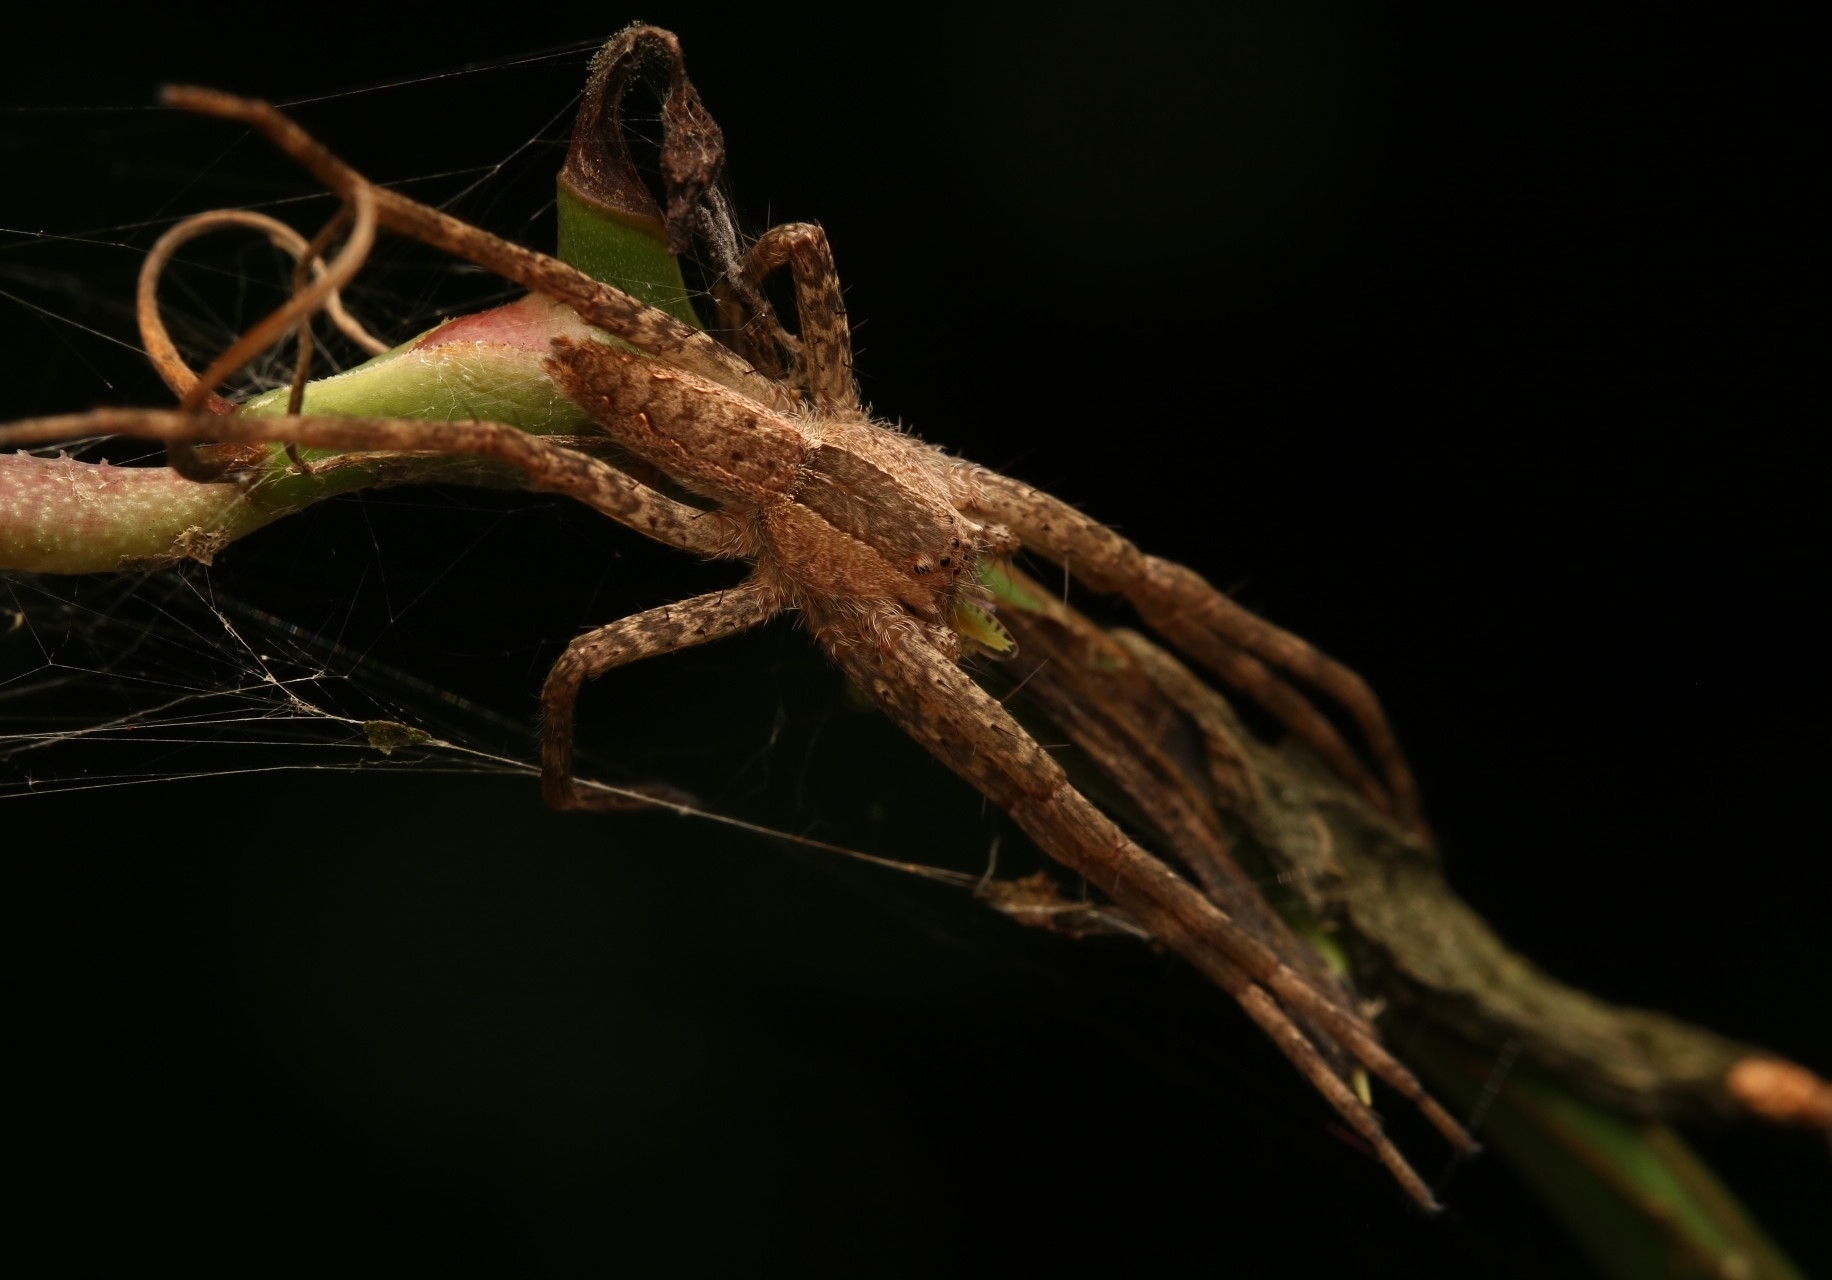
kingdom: Animalia
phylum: Arthropoda
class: Arachnida
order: Araneae
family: Pisauridae
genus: Pisaurina
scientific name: Pisaurina mira
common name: American nursery web spider
